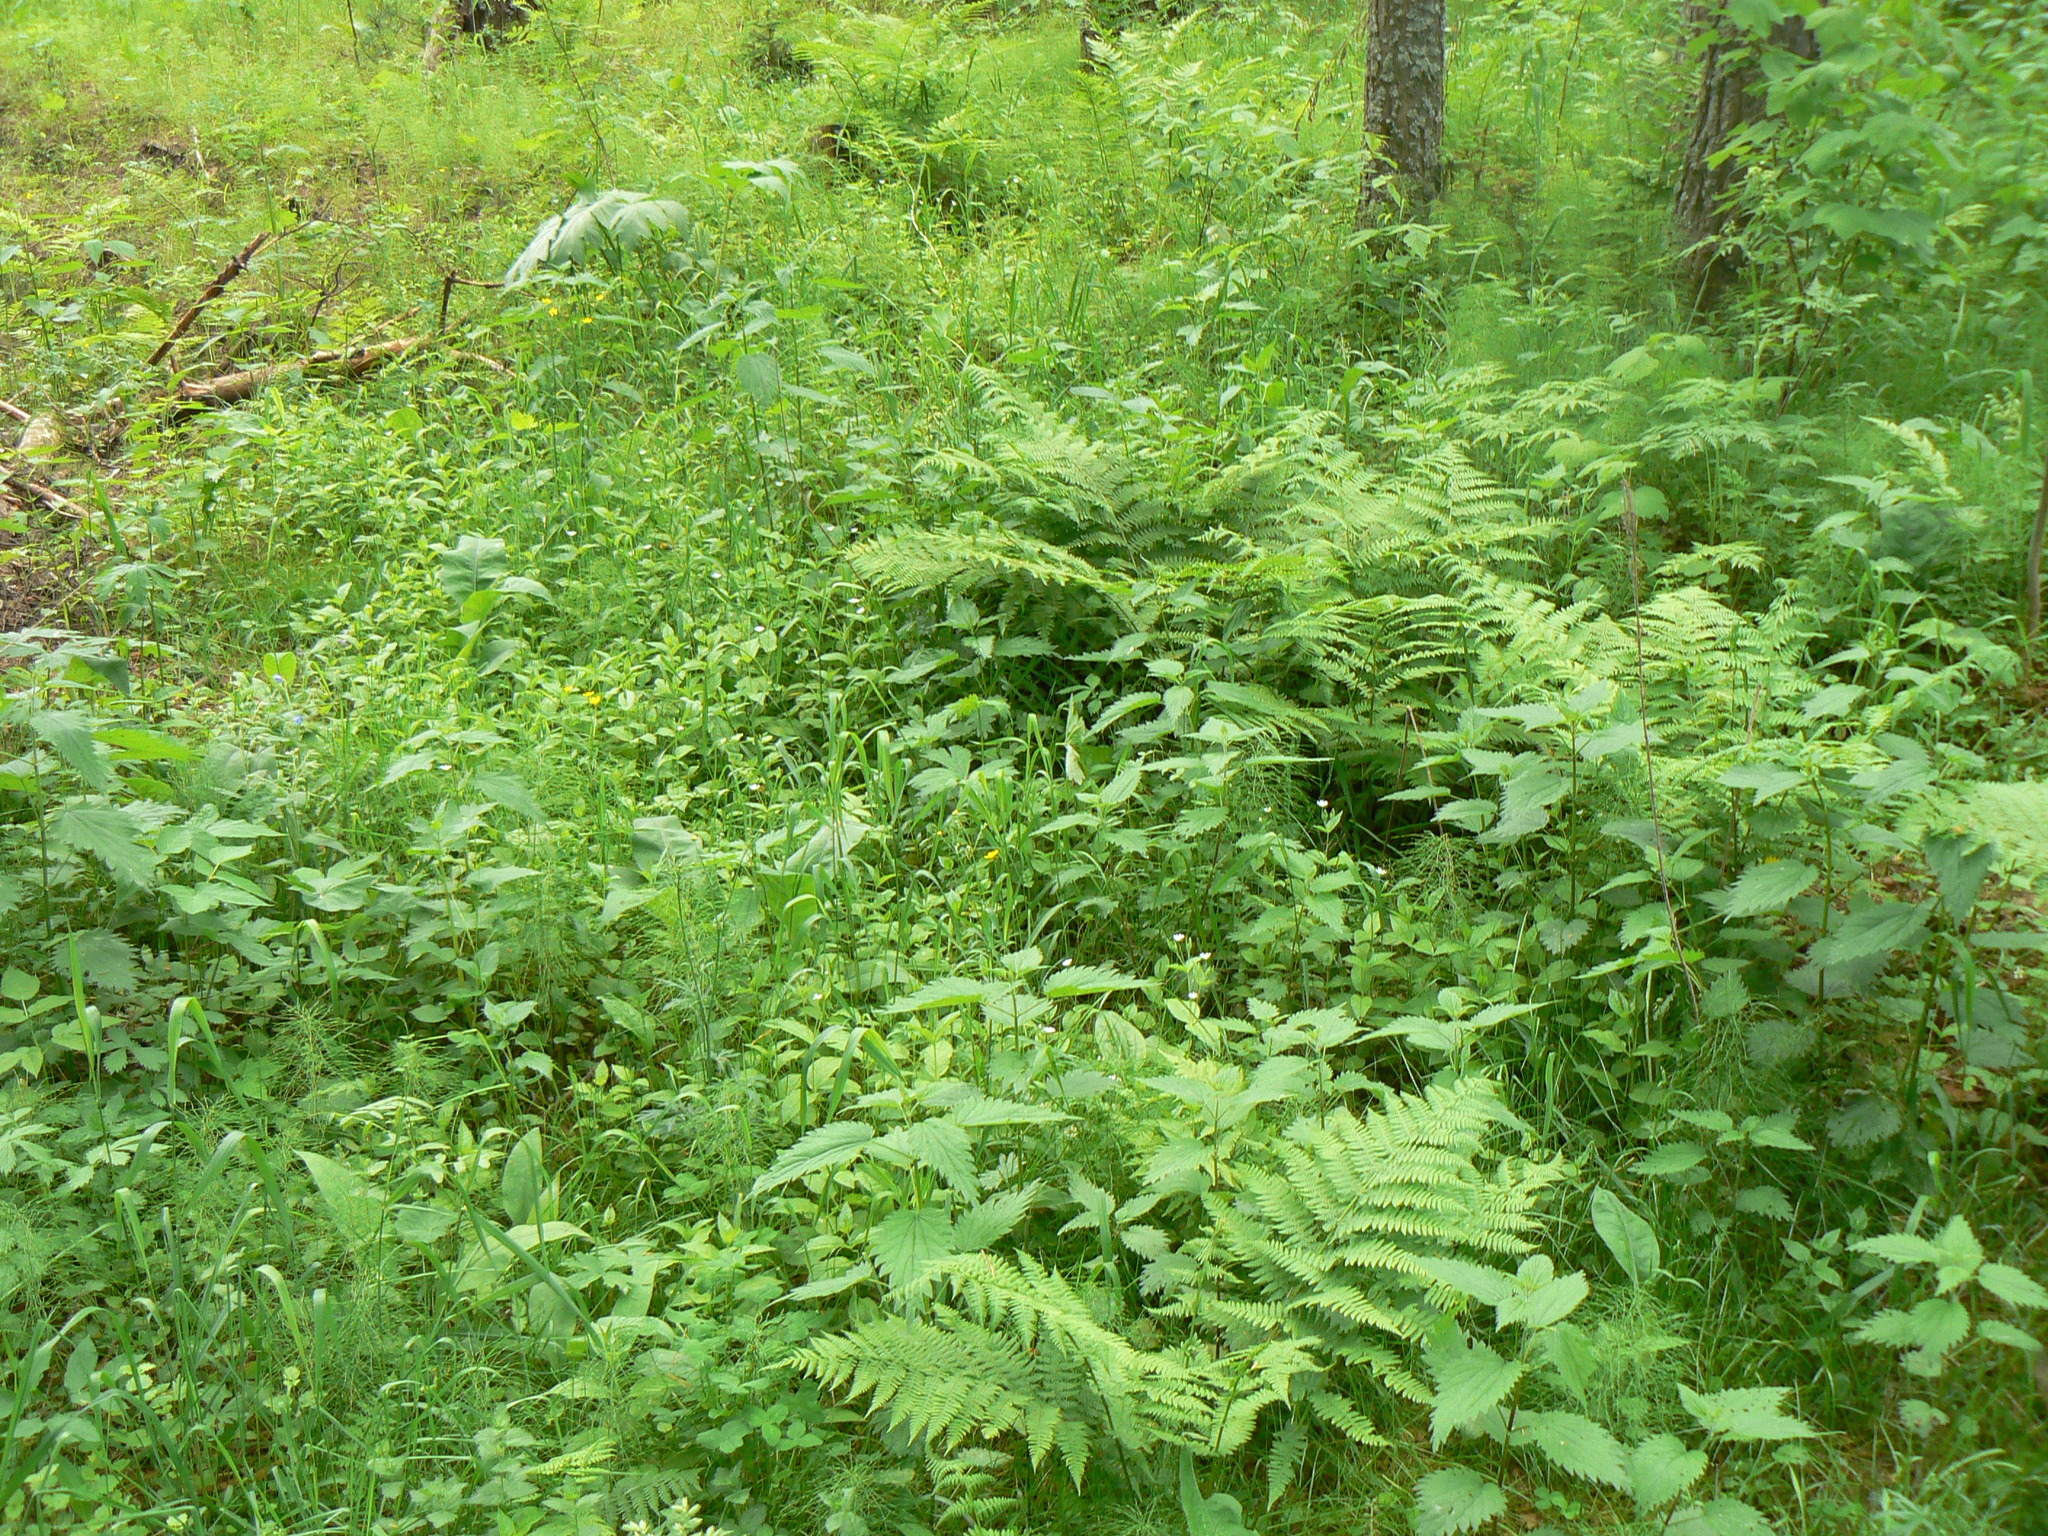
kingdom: Plantae
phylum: Tracheophyta
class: Polypodiopsida
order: Polypodiales
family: Dennstaedtiaceae
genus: Pteridium
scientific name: Pteridium aquilinum
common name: Bracken
